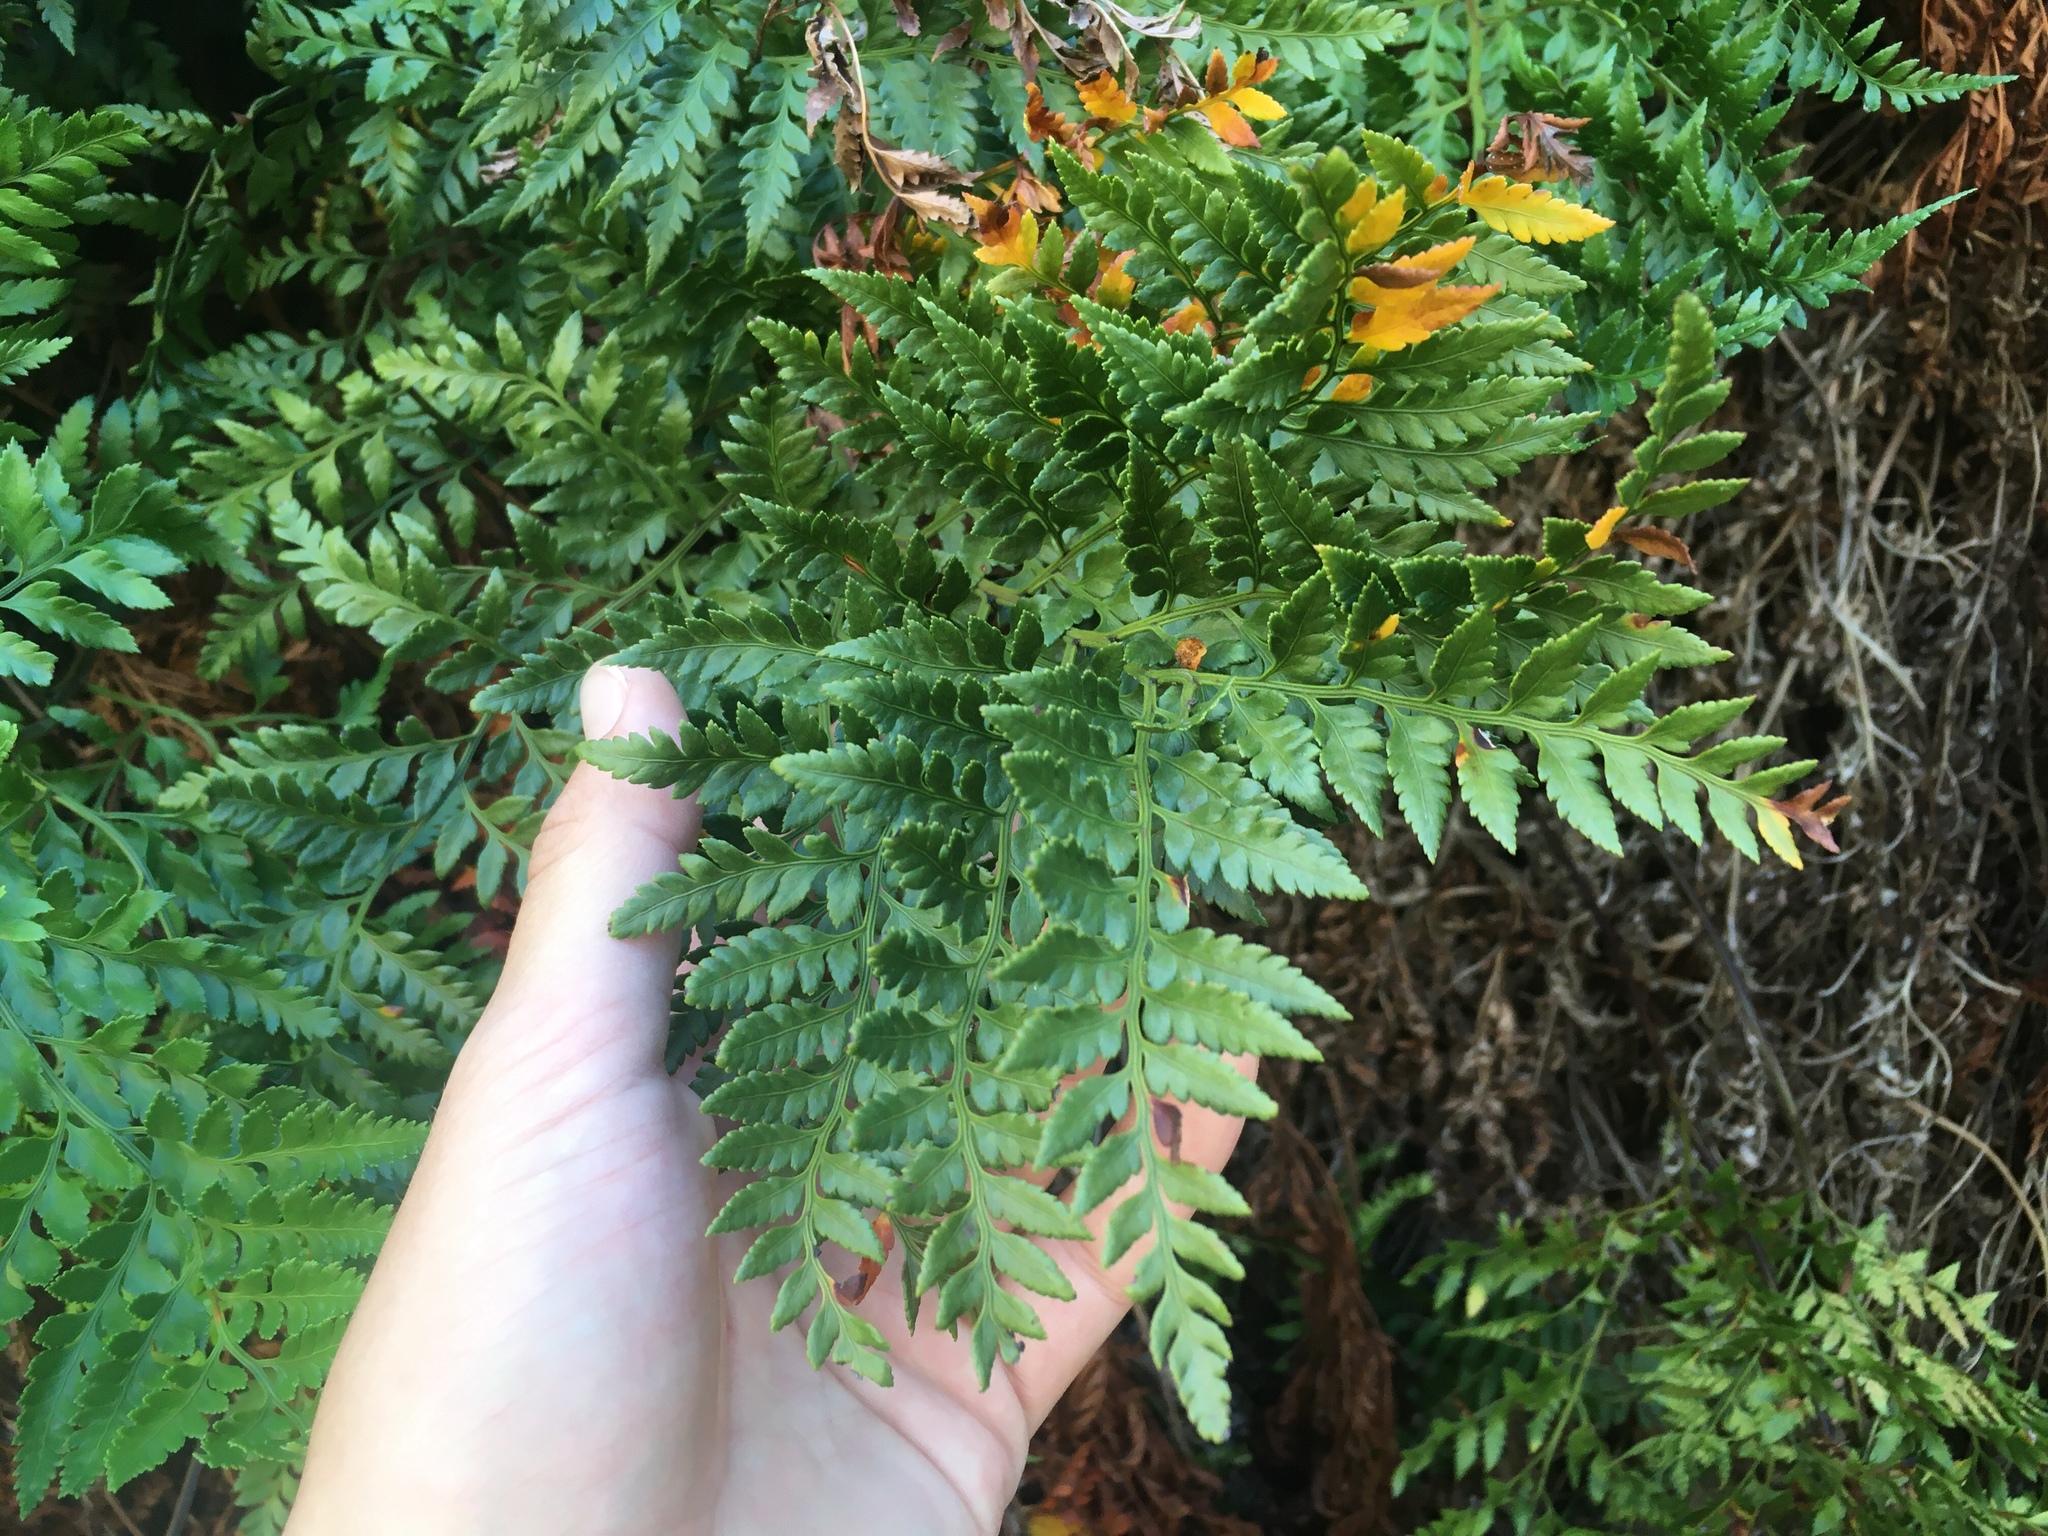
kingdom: Plantae
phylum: Tracheophyta
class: Polypodiopsida
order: Polypodiales
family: Dryopteridaceae
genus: Rumohra
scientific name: Rumohra adiantiformis
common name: Leather fern
